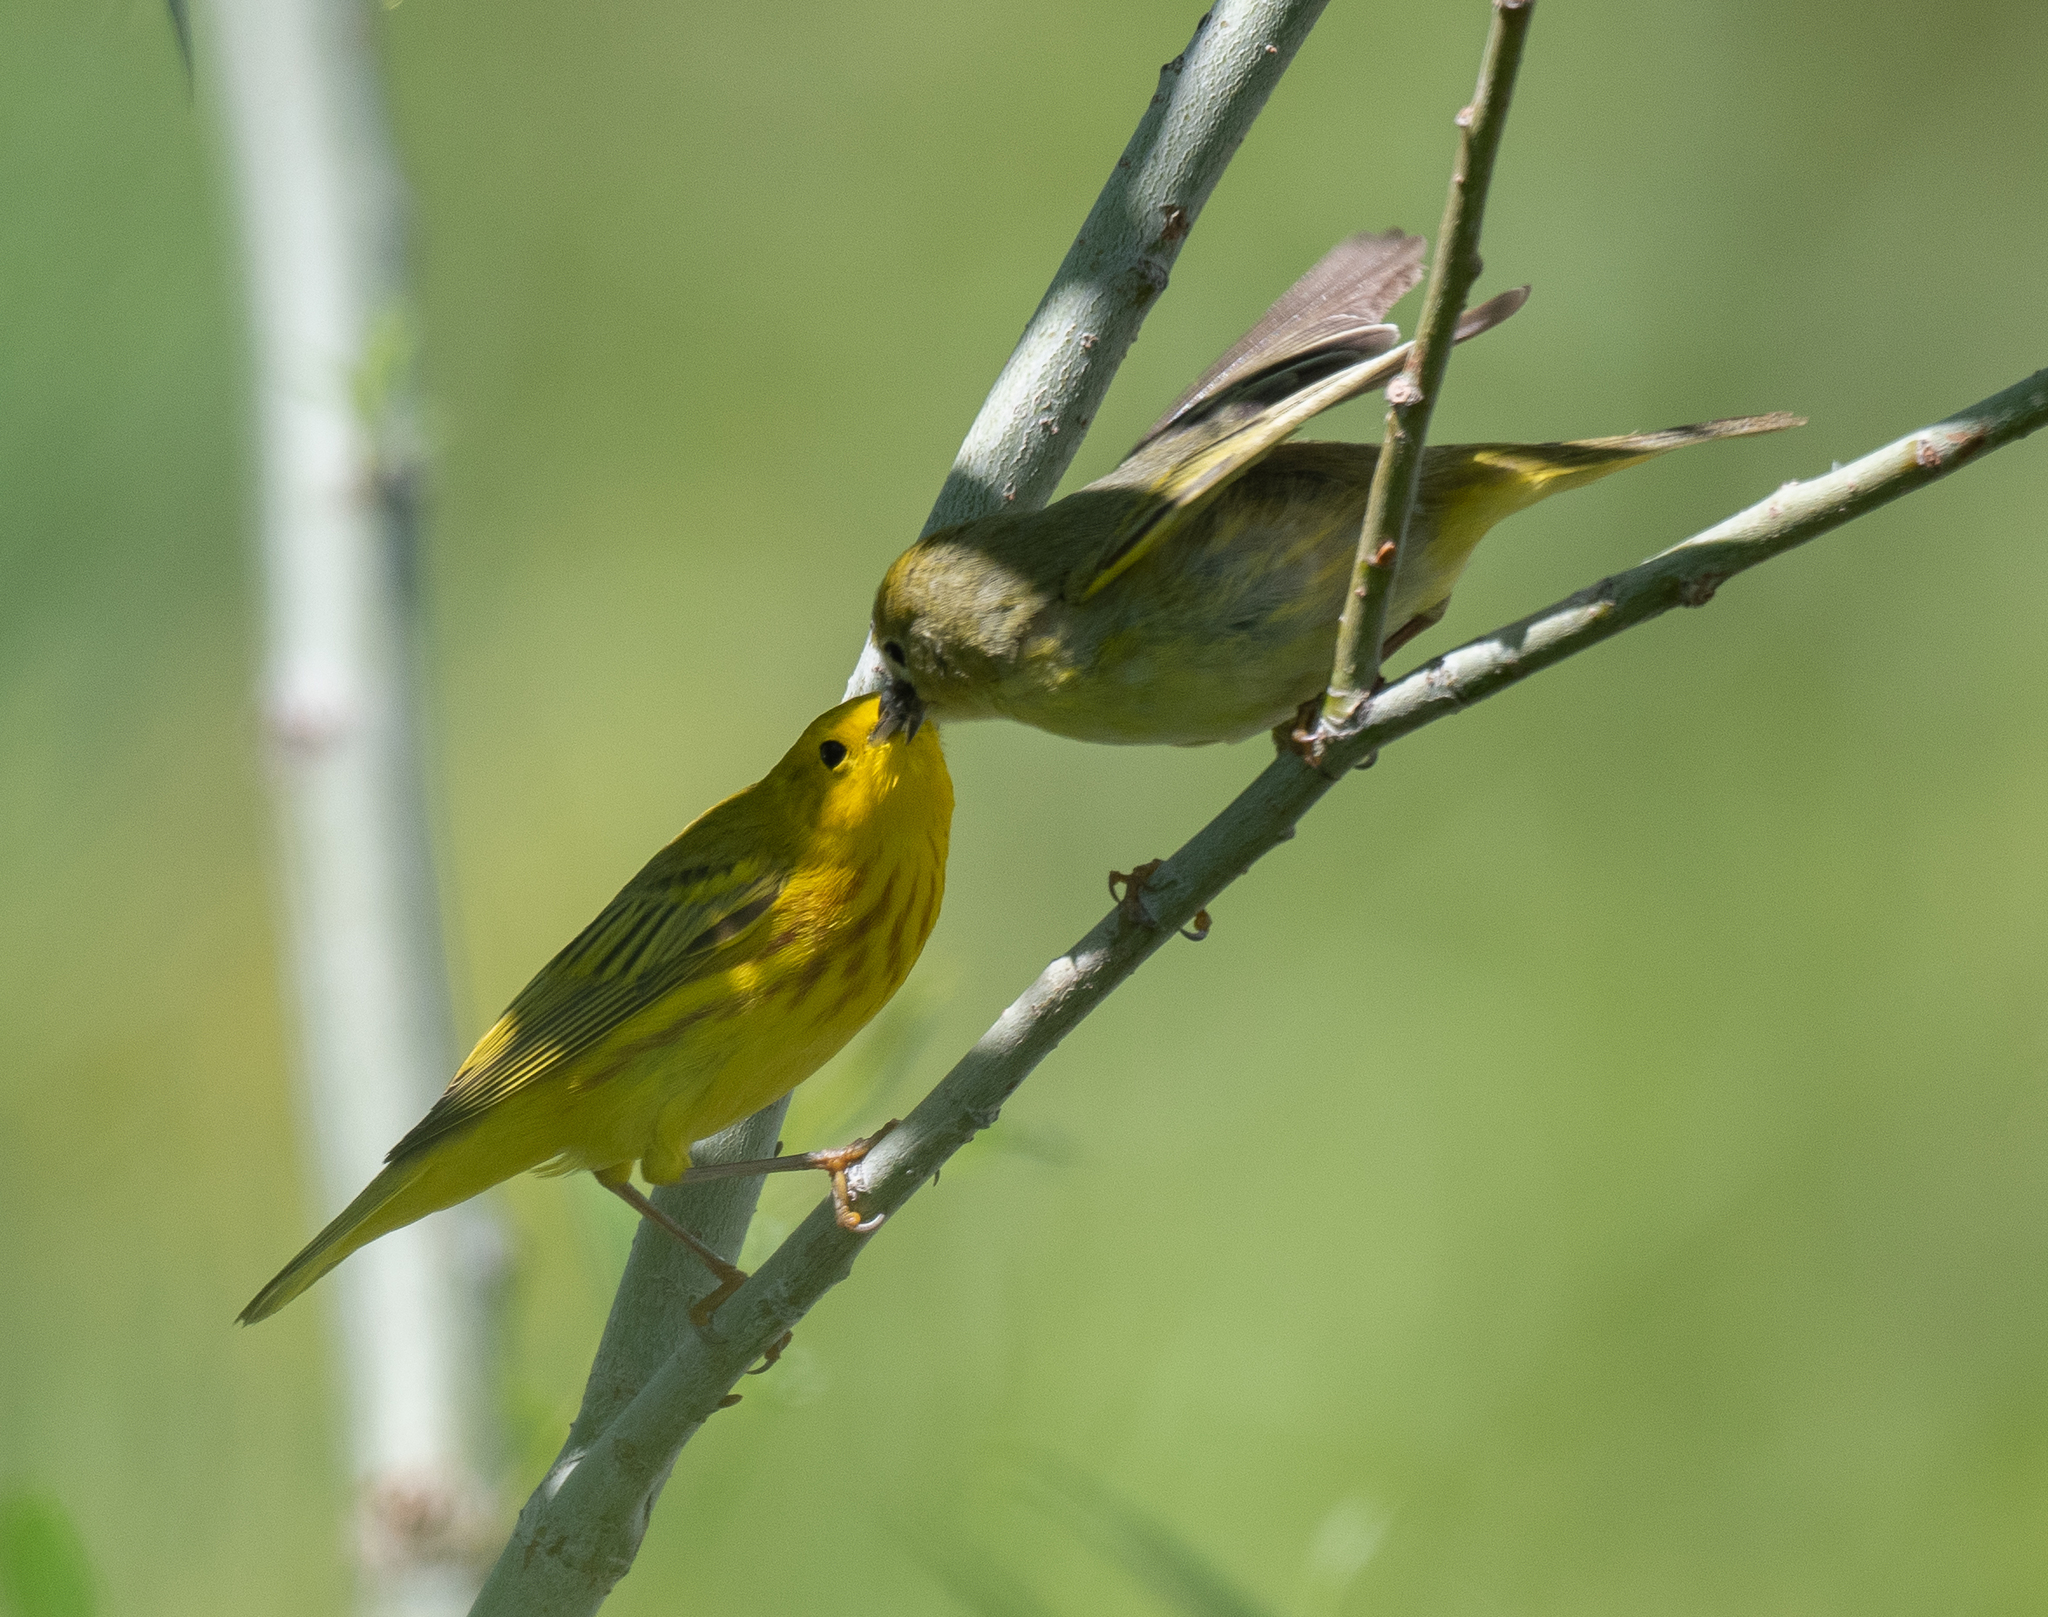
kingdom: Animalia
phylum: Chordata
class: Aves
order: Passeriformes
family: Parulidae
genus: Setophaga
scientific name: Setophaga petechia
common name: Yellow warbler
